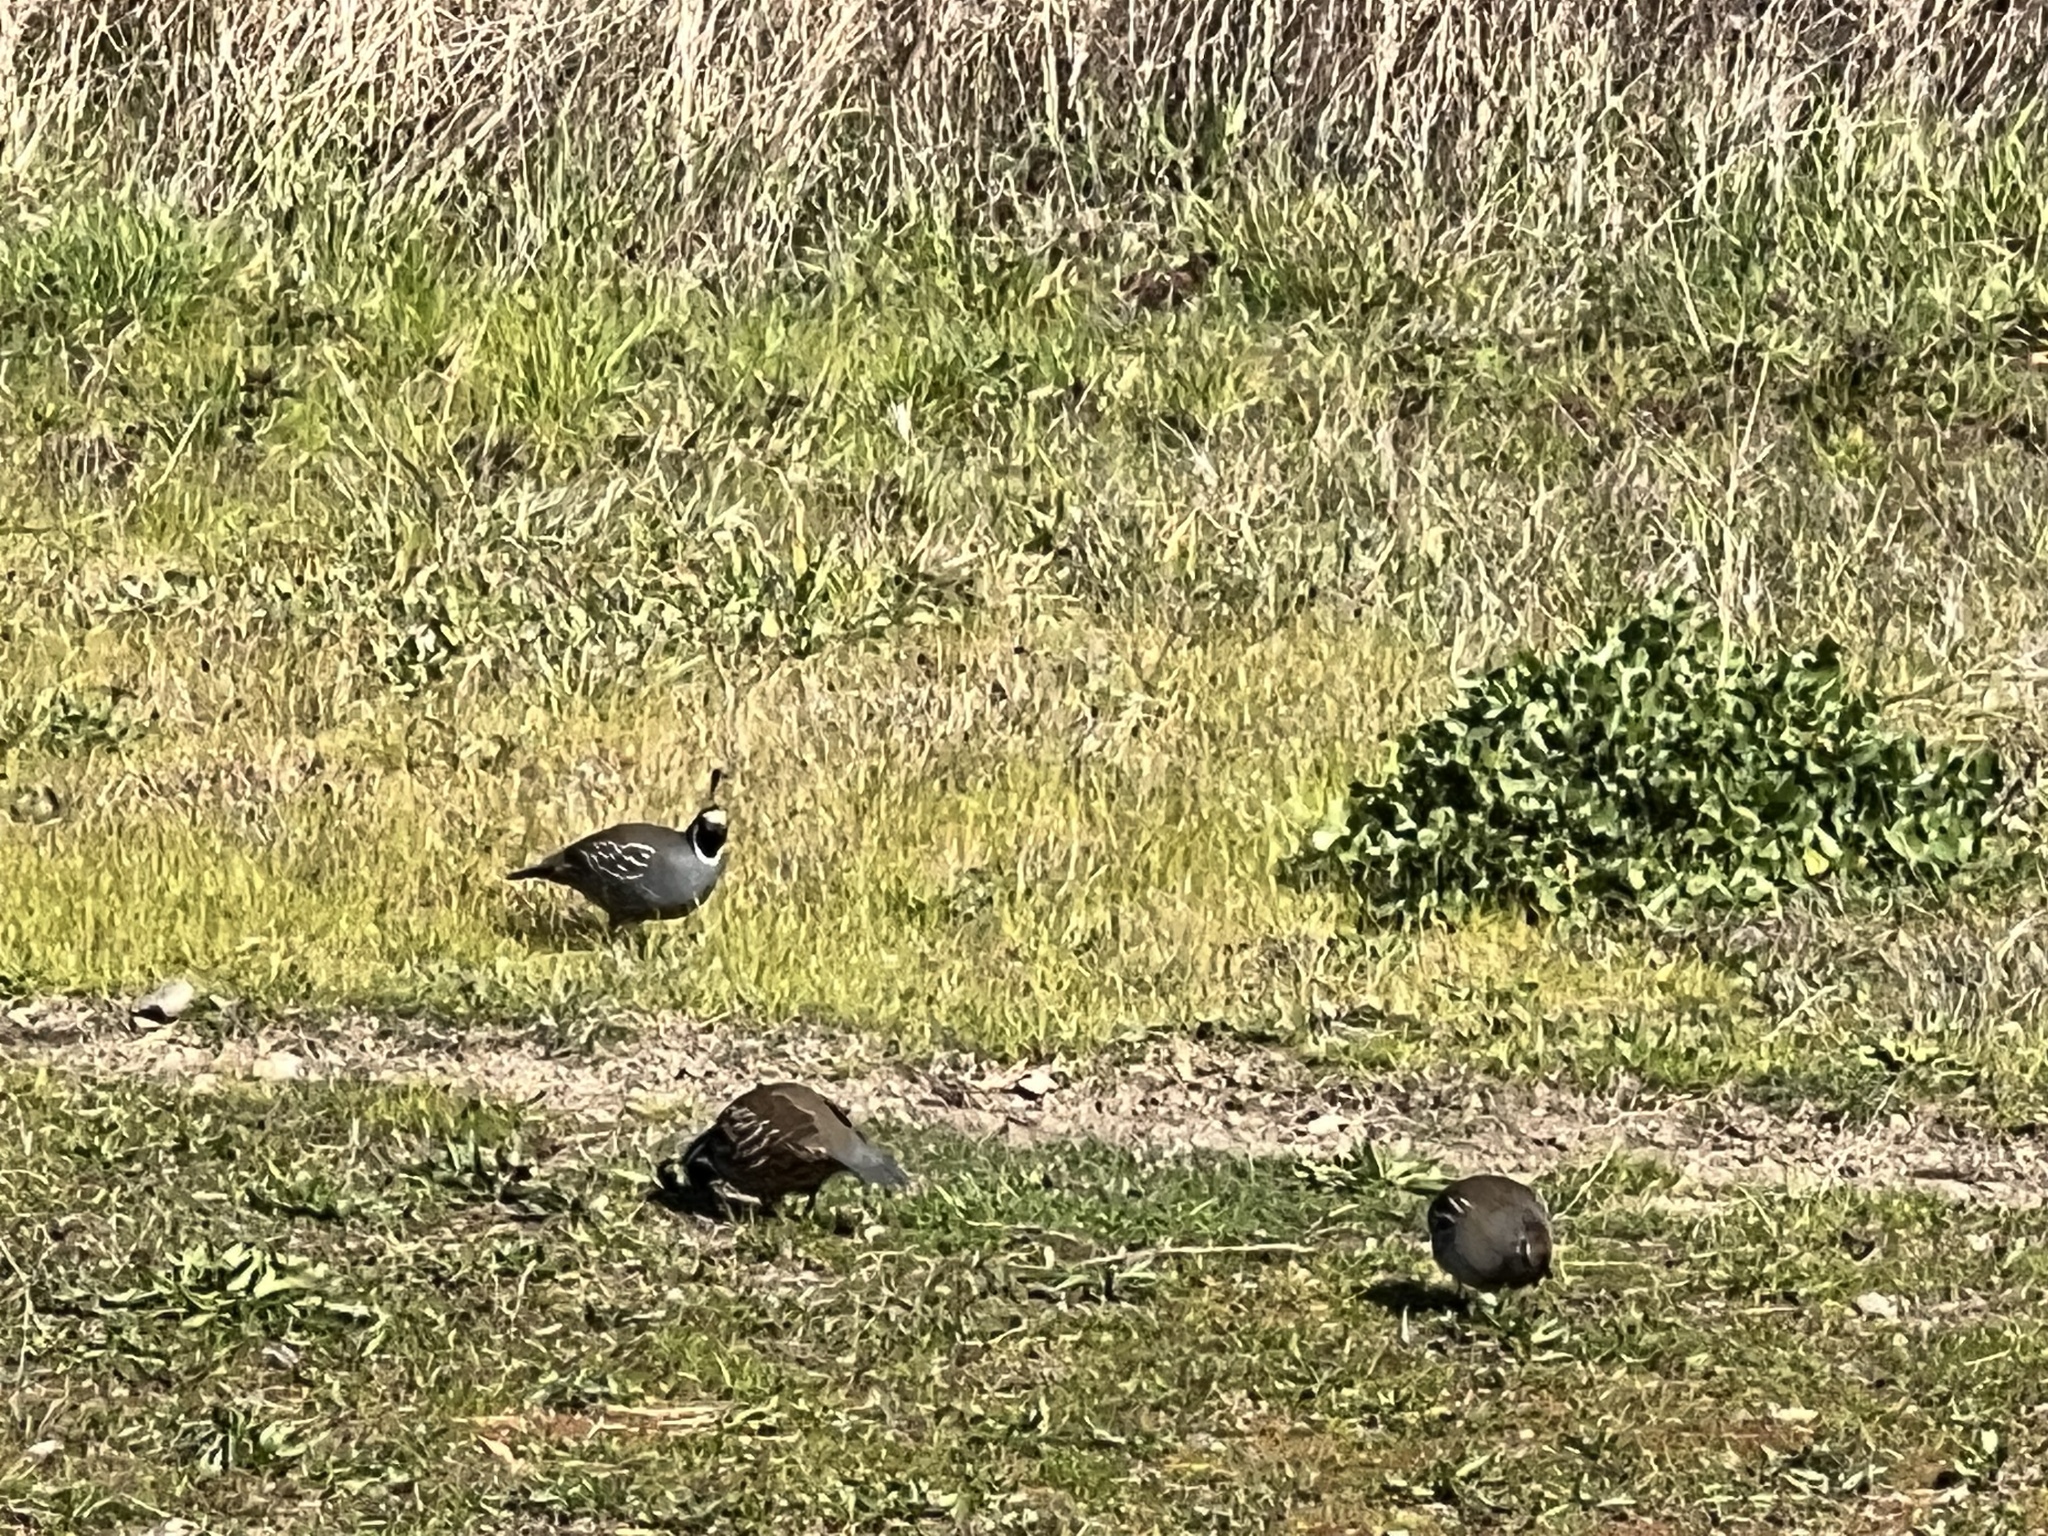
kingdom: Animalia
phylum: Chordata
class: Aves
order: Galliformes
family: Odontophoridae
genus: Callipepla
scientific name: Callipepla californica
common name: California quail
